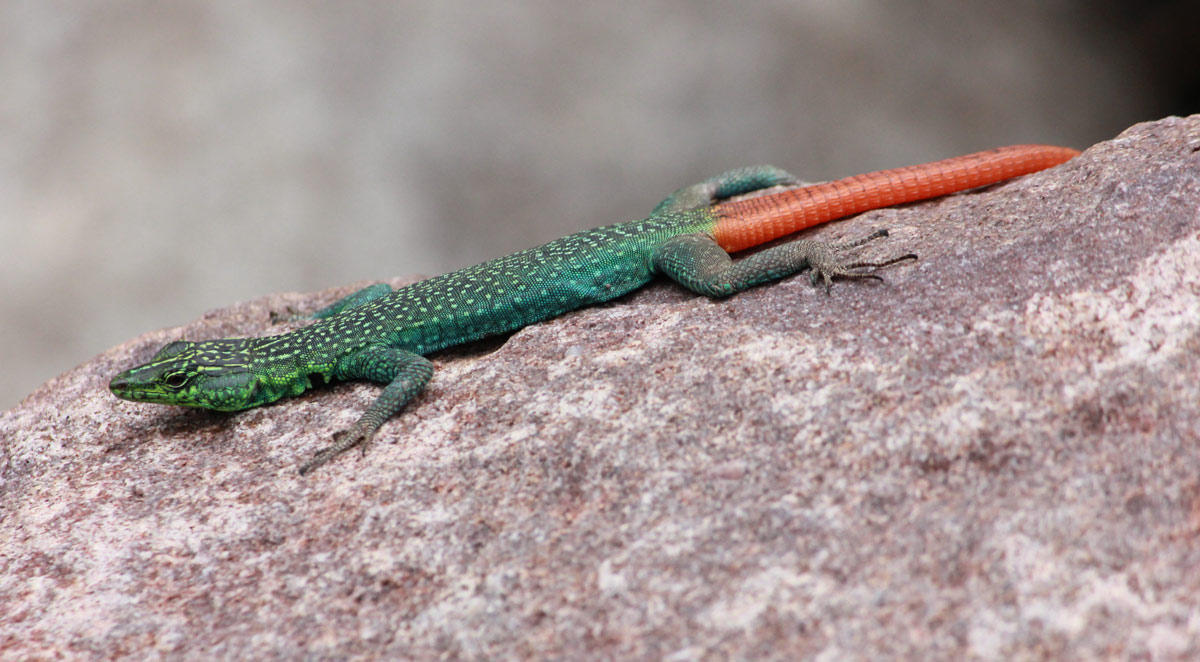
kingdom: Animalia
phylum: Chordata
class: Squamata
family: Cordylidae
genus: Platysaurus
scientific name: Platysaurus relictus
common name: Soutpansberg flat lizard
